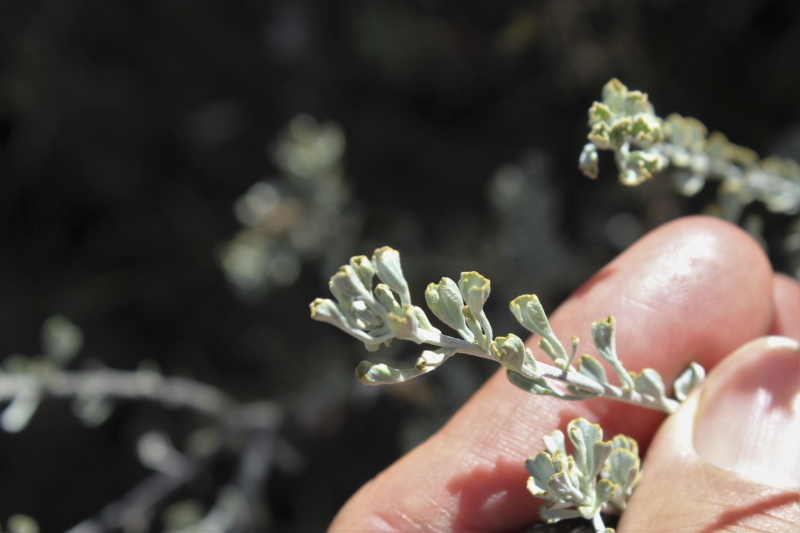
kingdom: Plantae
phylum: Tracheophyta
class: Magnoliopsida
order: Asterales
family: Asteraceae
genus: Pentzia
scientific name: Pentzia dentata
